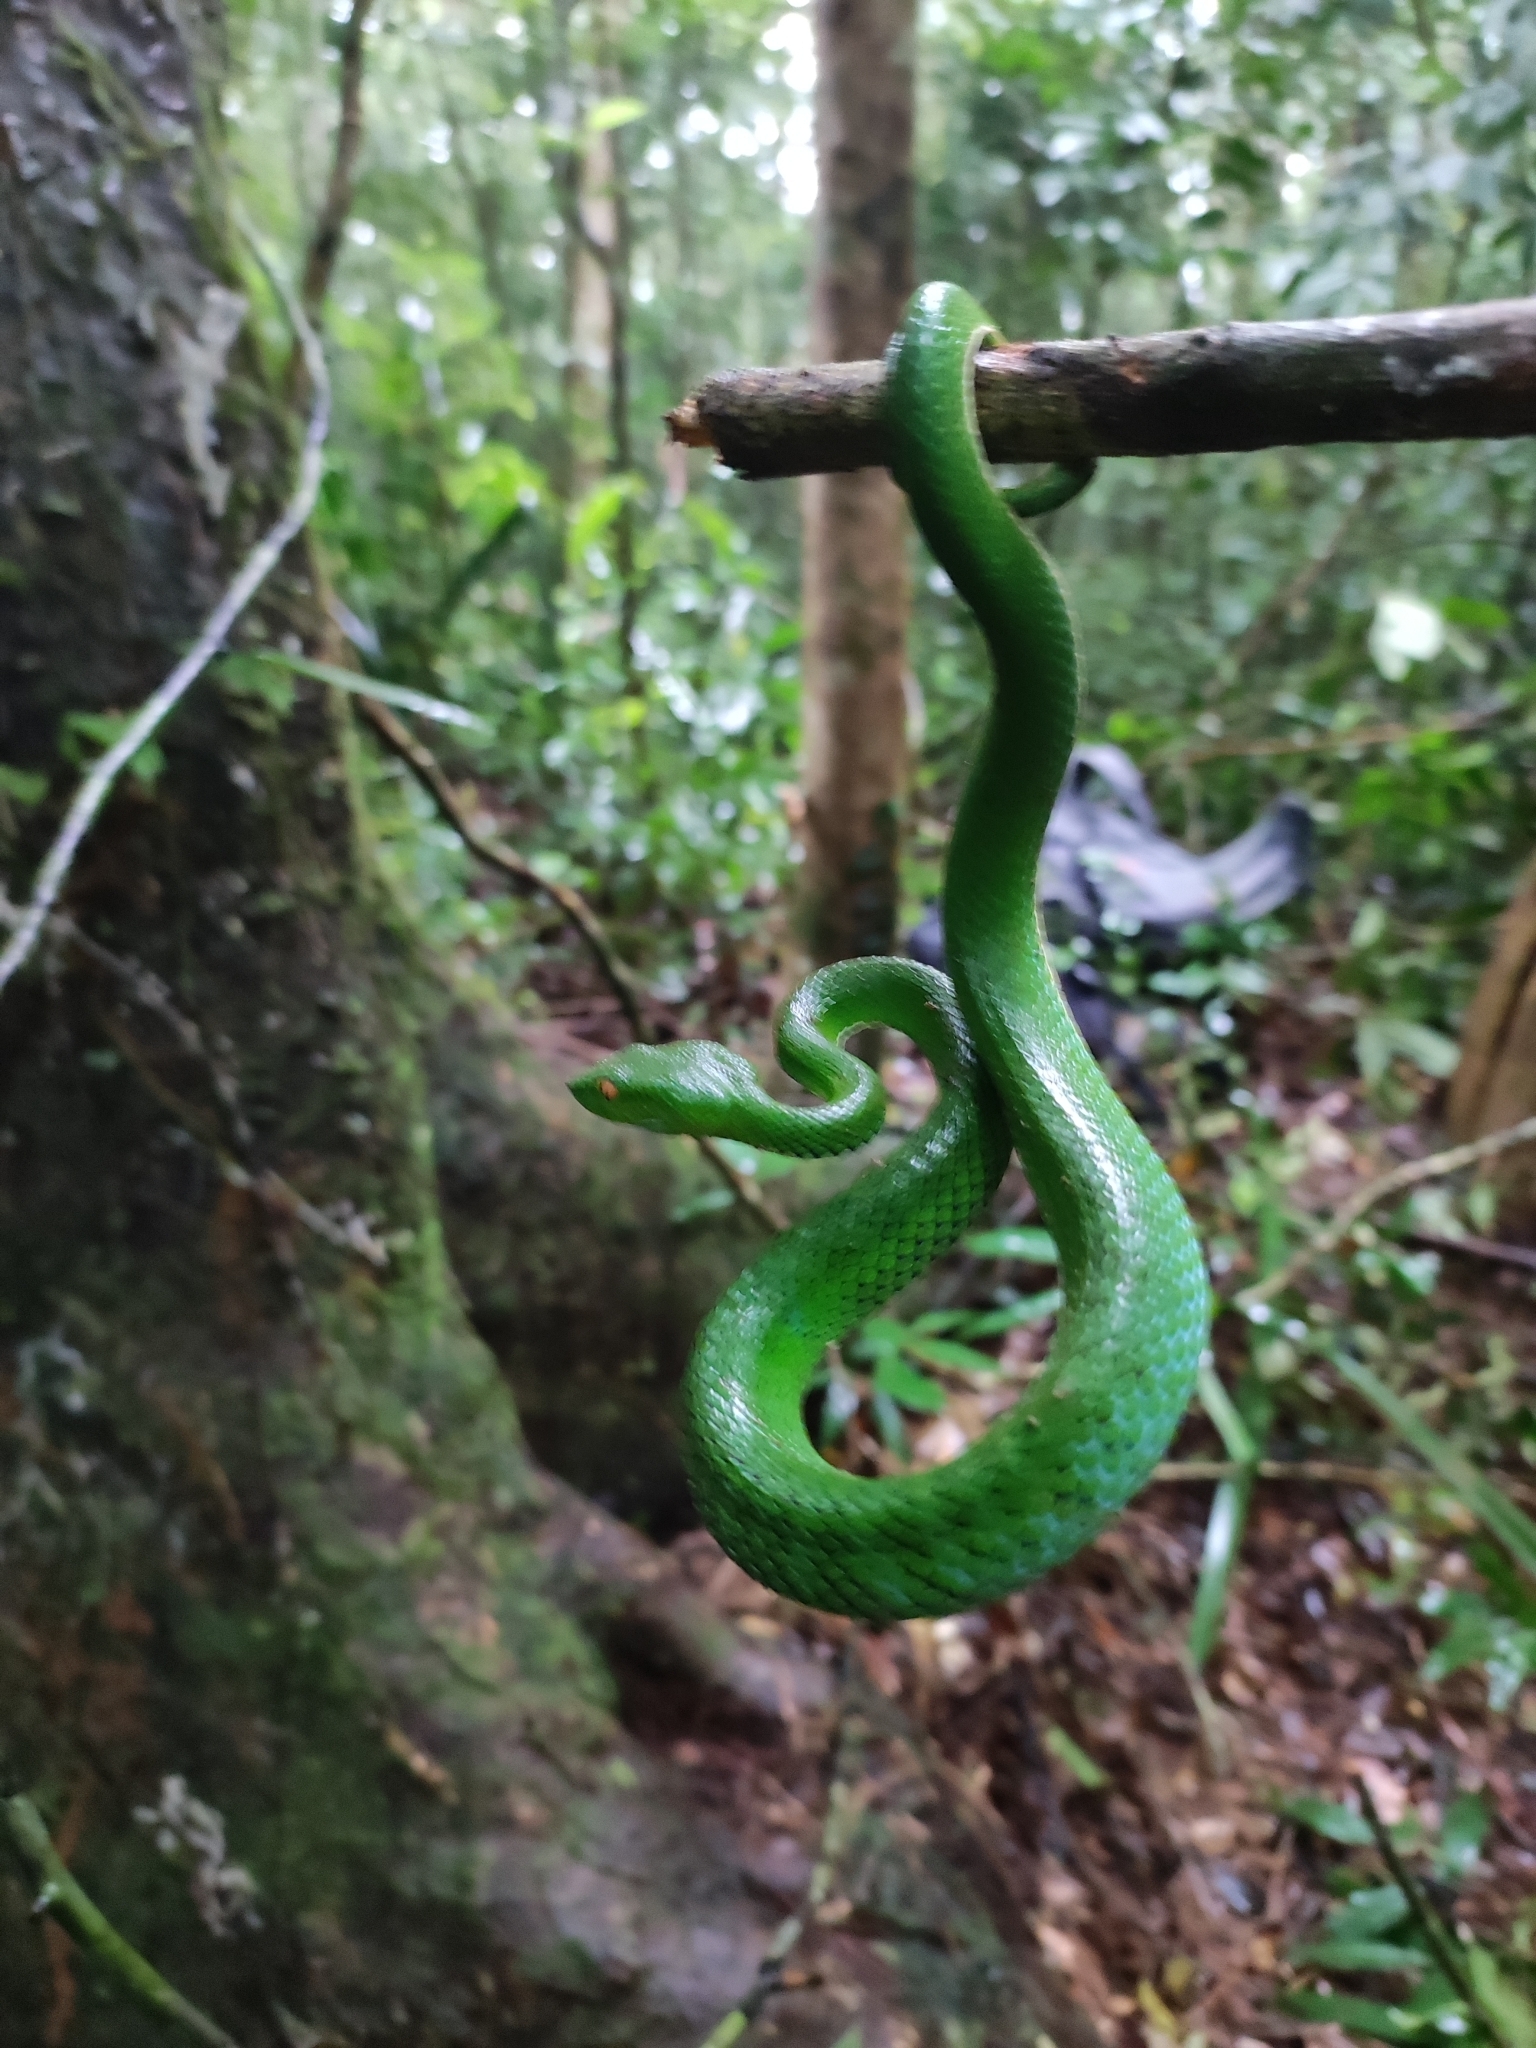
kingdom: Animalia
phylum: Chordata
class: Squamata
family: Viperidae
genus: Trimeresurus
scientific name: Trimeresurus vogeli
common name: Vogel's pit viper
